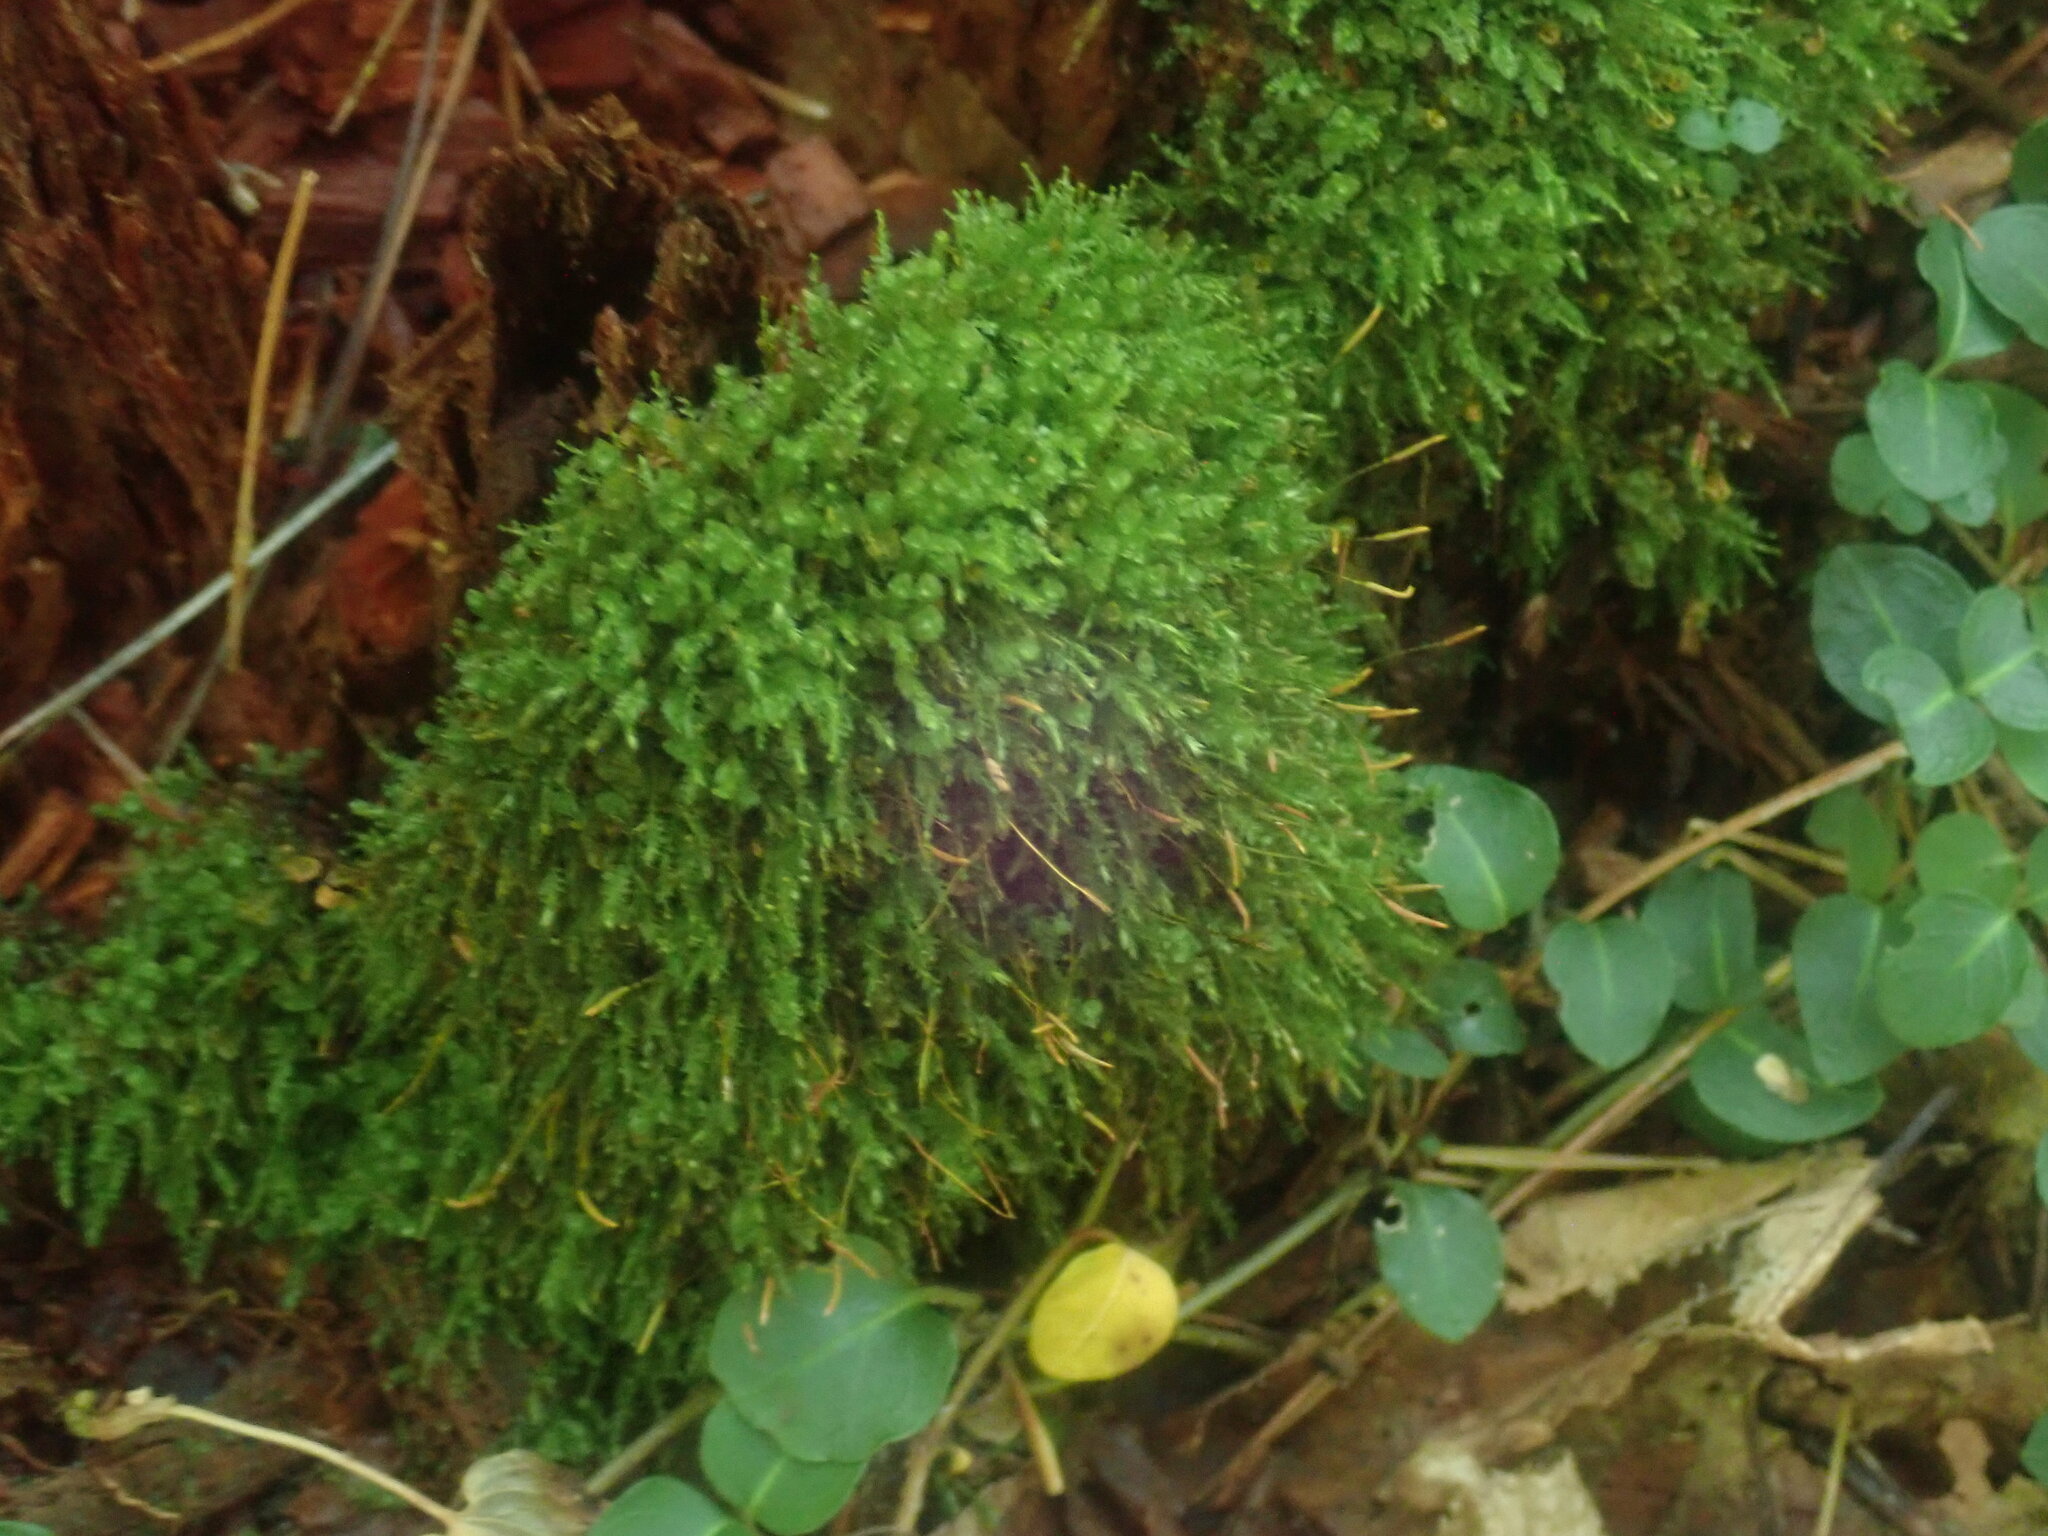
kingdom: Plantae
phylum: Bryophyta
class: Polytrichopsida
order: Tetraphidales
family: Tetraphidaceae
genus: Tetraphis
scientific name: Tetraphis pellucida
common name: Common four-toothed moss
